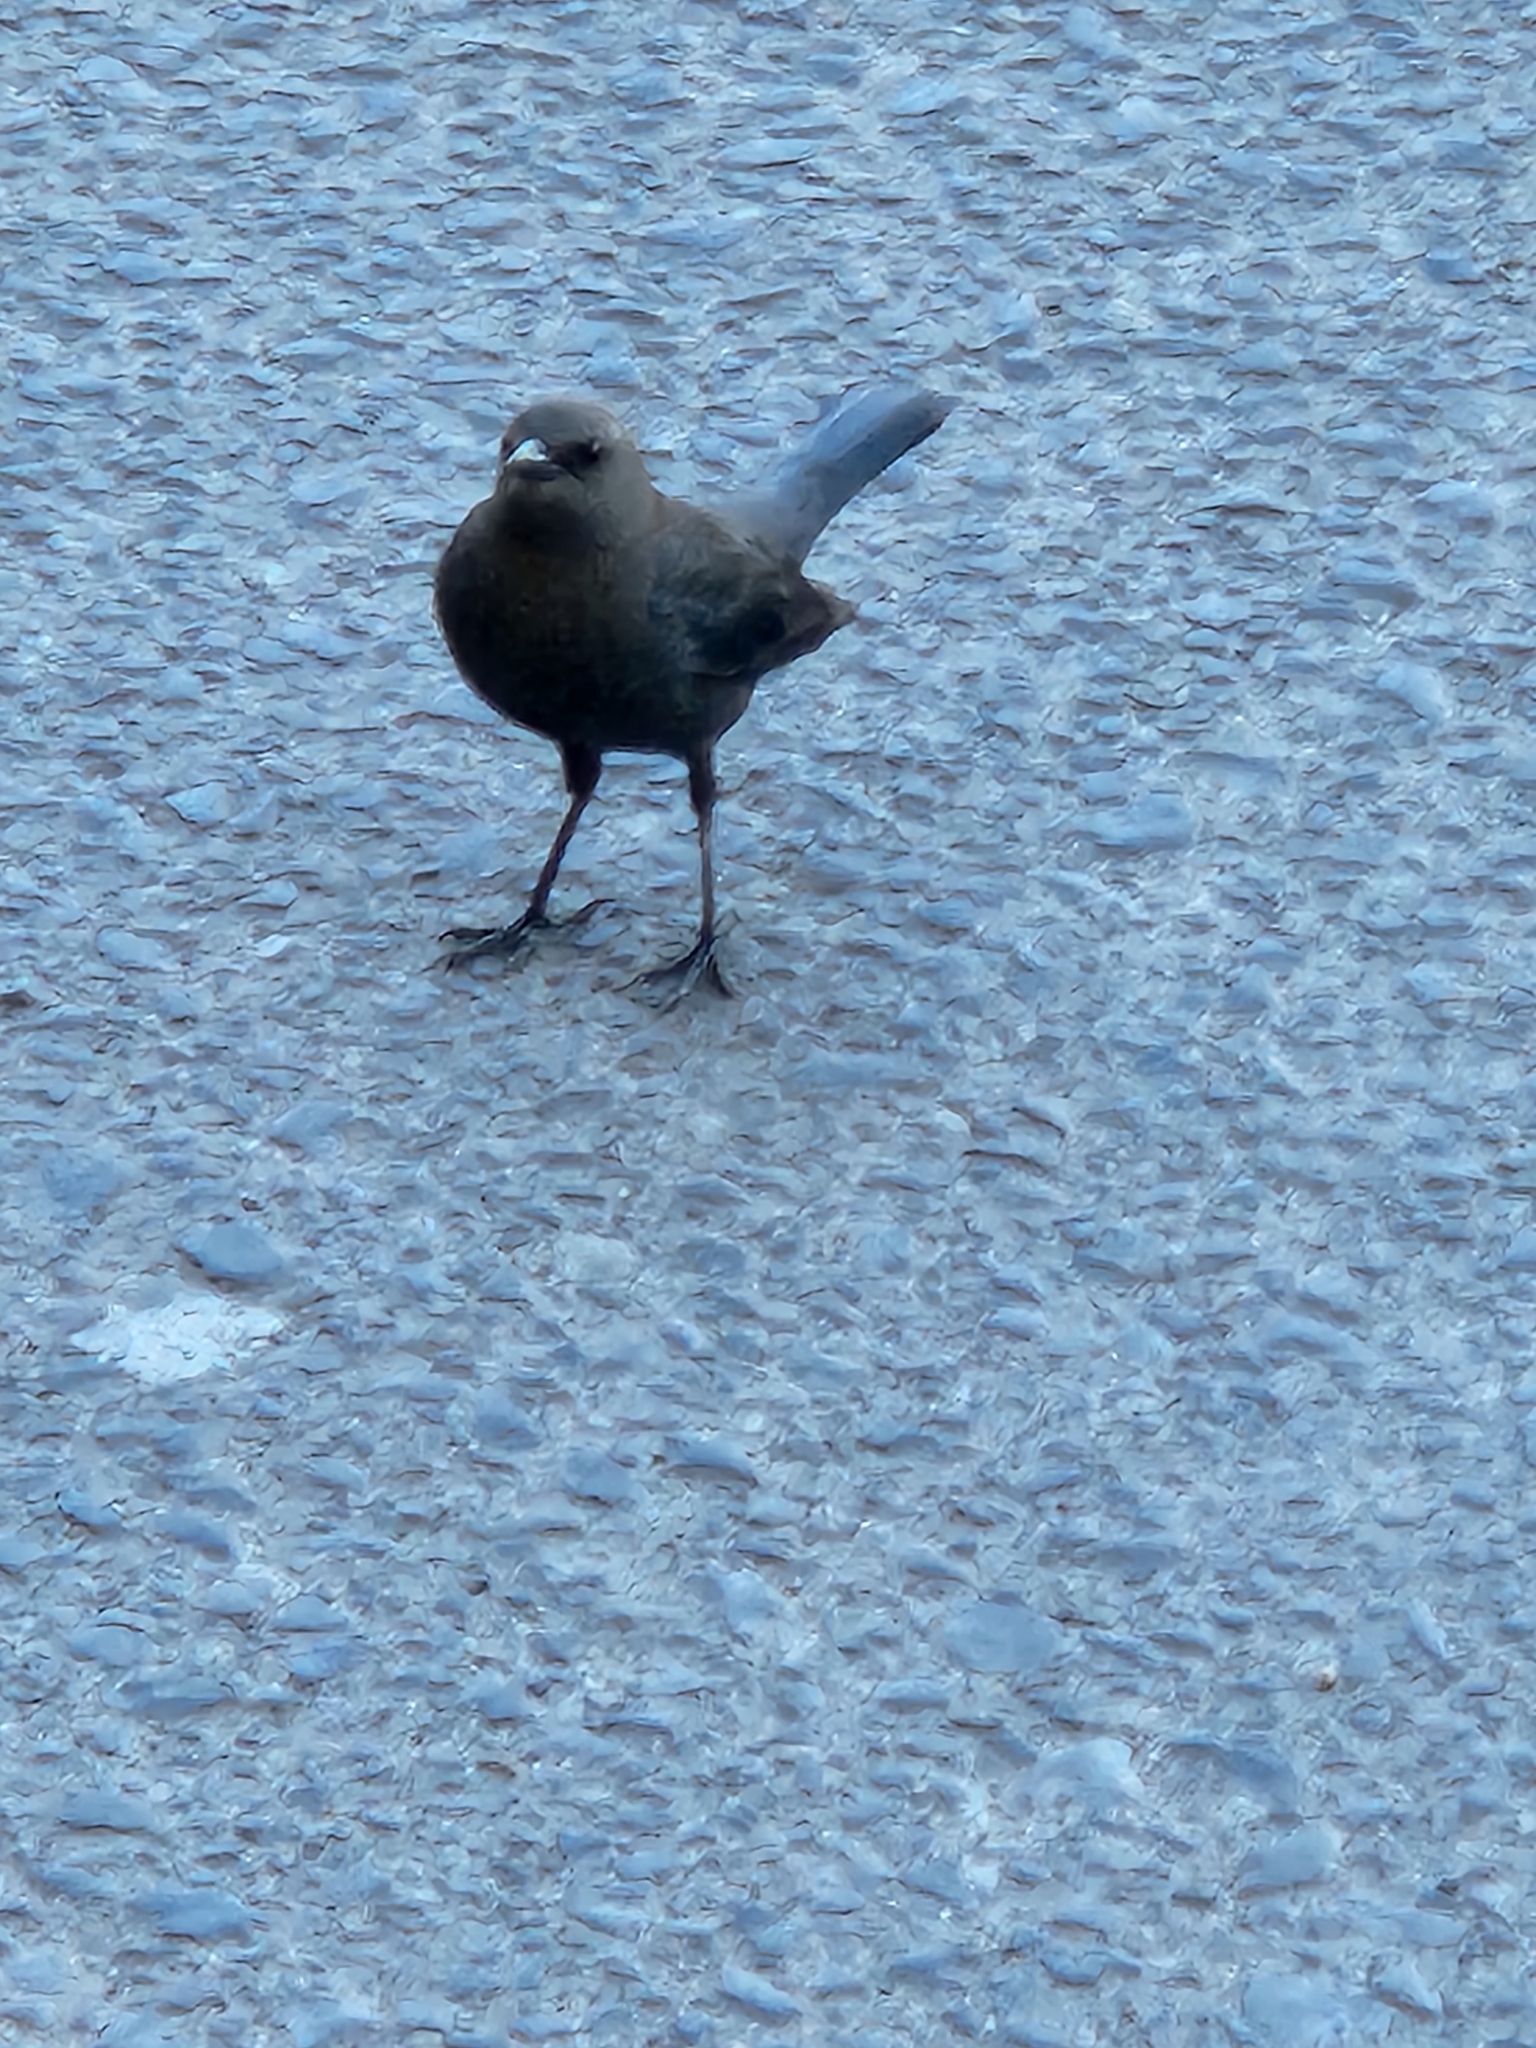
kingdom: Animalia
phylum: Chordata
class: Aves
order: Passeriformes
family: Icteridae
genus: Euphagus
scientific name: Euphagus cyanocephalus
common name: Brewer's blackbird
